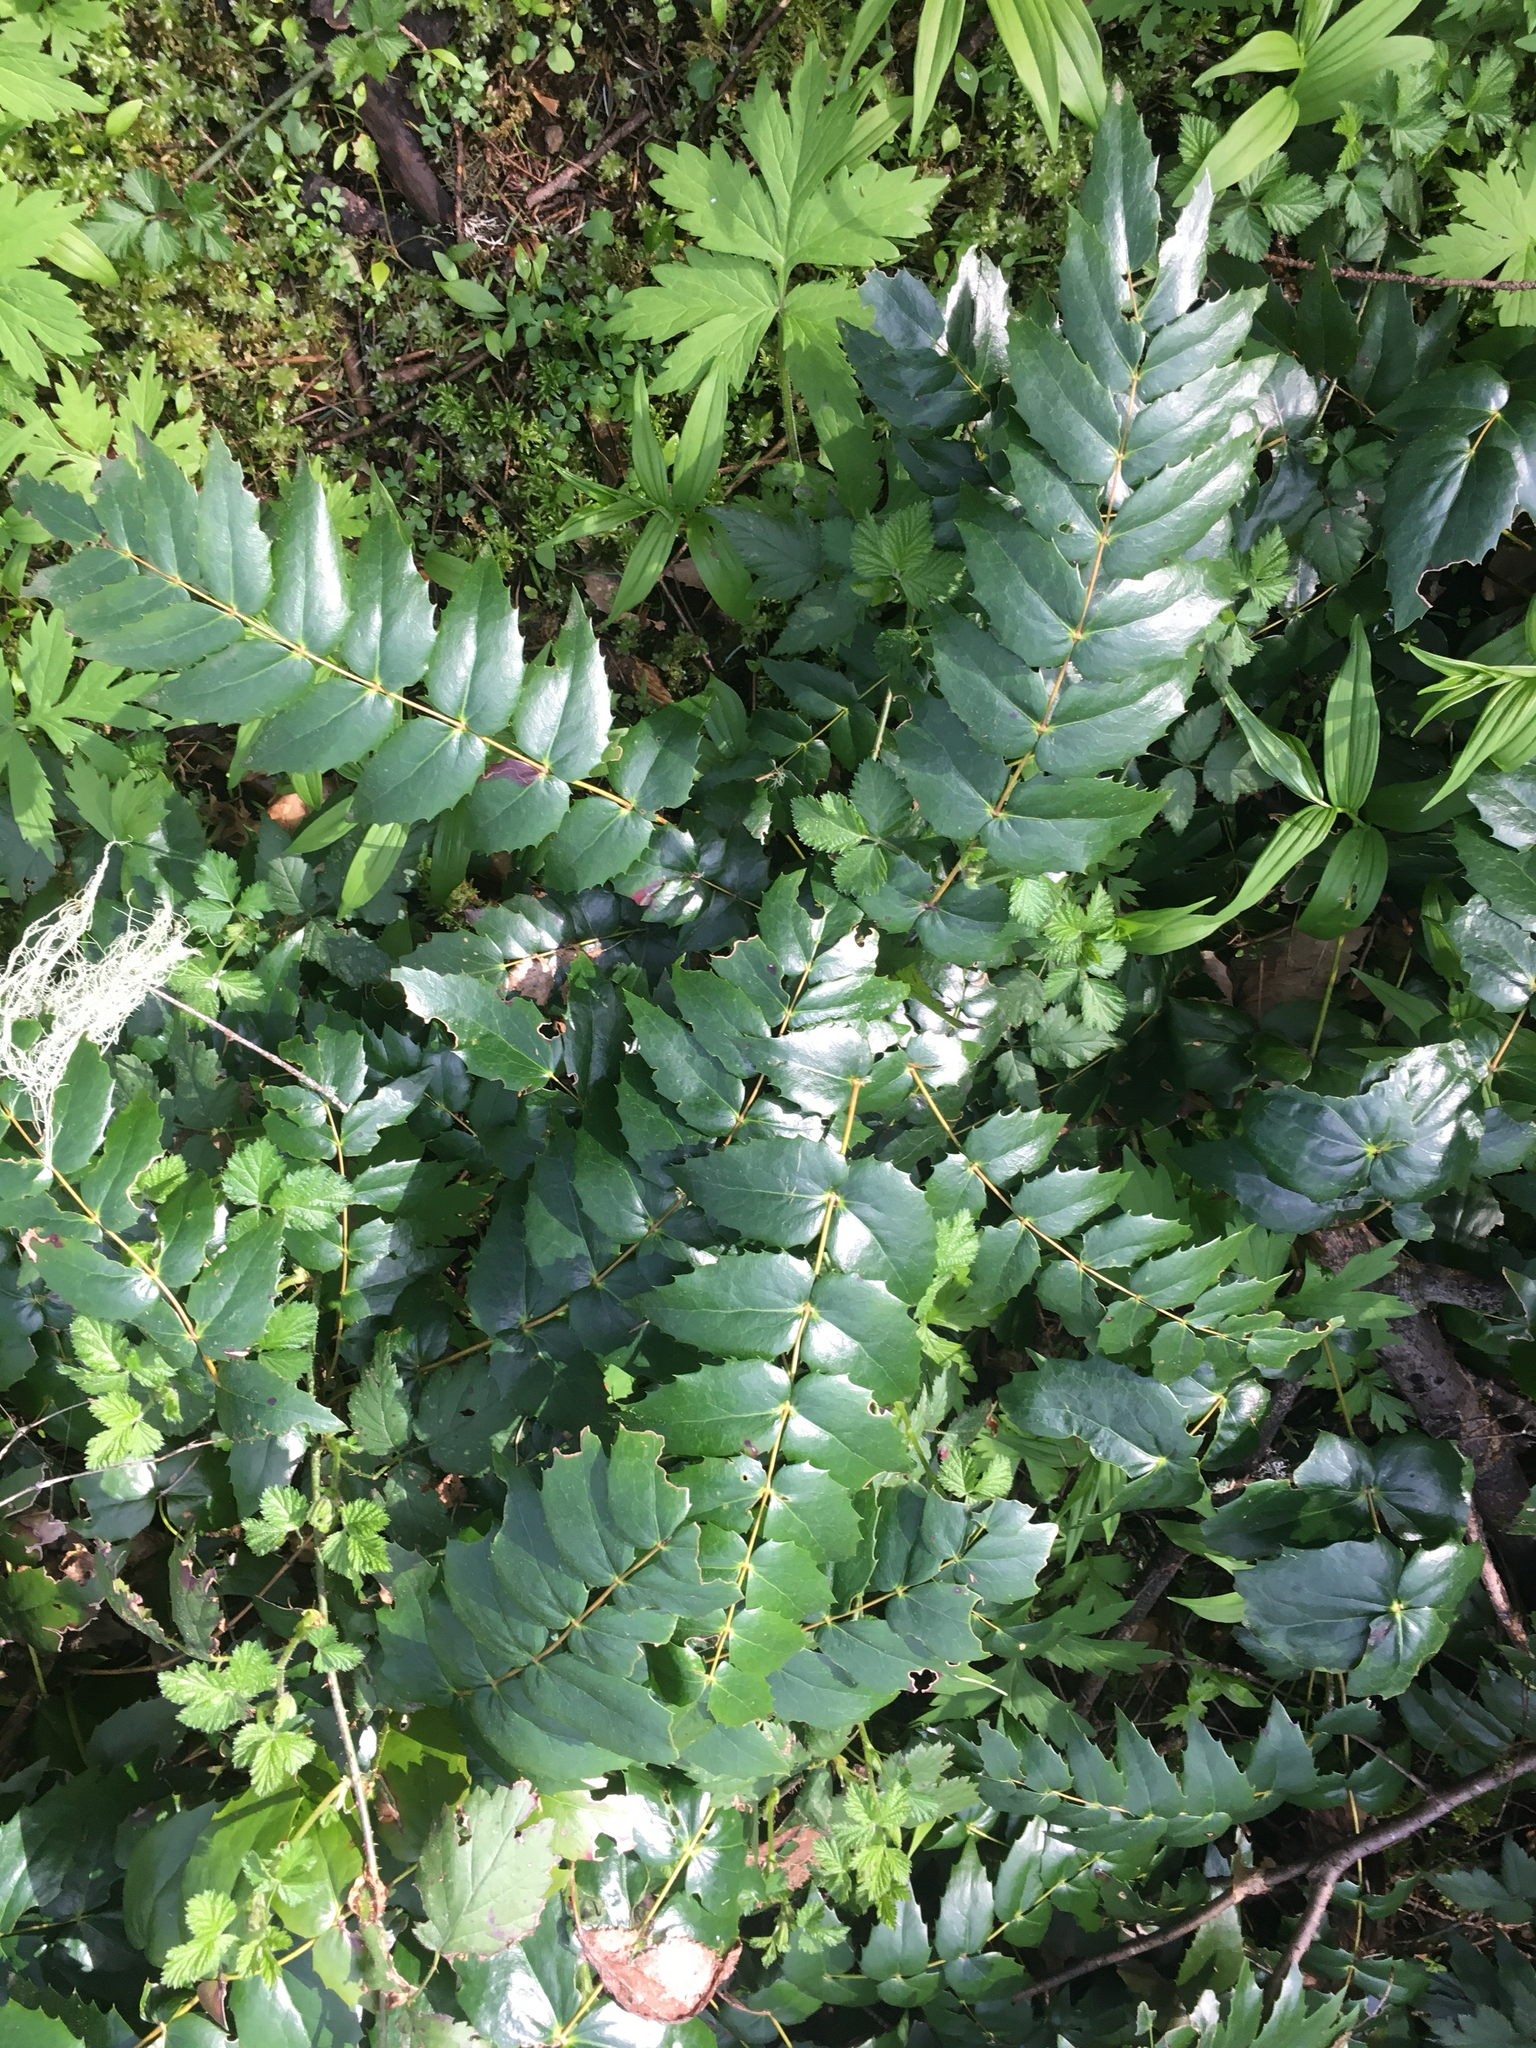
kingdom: Plantae
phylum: Tracheophyta
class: Magnoliopsida
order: Ranunculales
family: Berberidaceae
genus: Mahonia
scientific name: Mahonia nervosa
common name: Cascade oregon-grape
